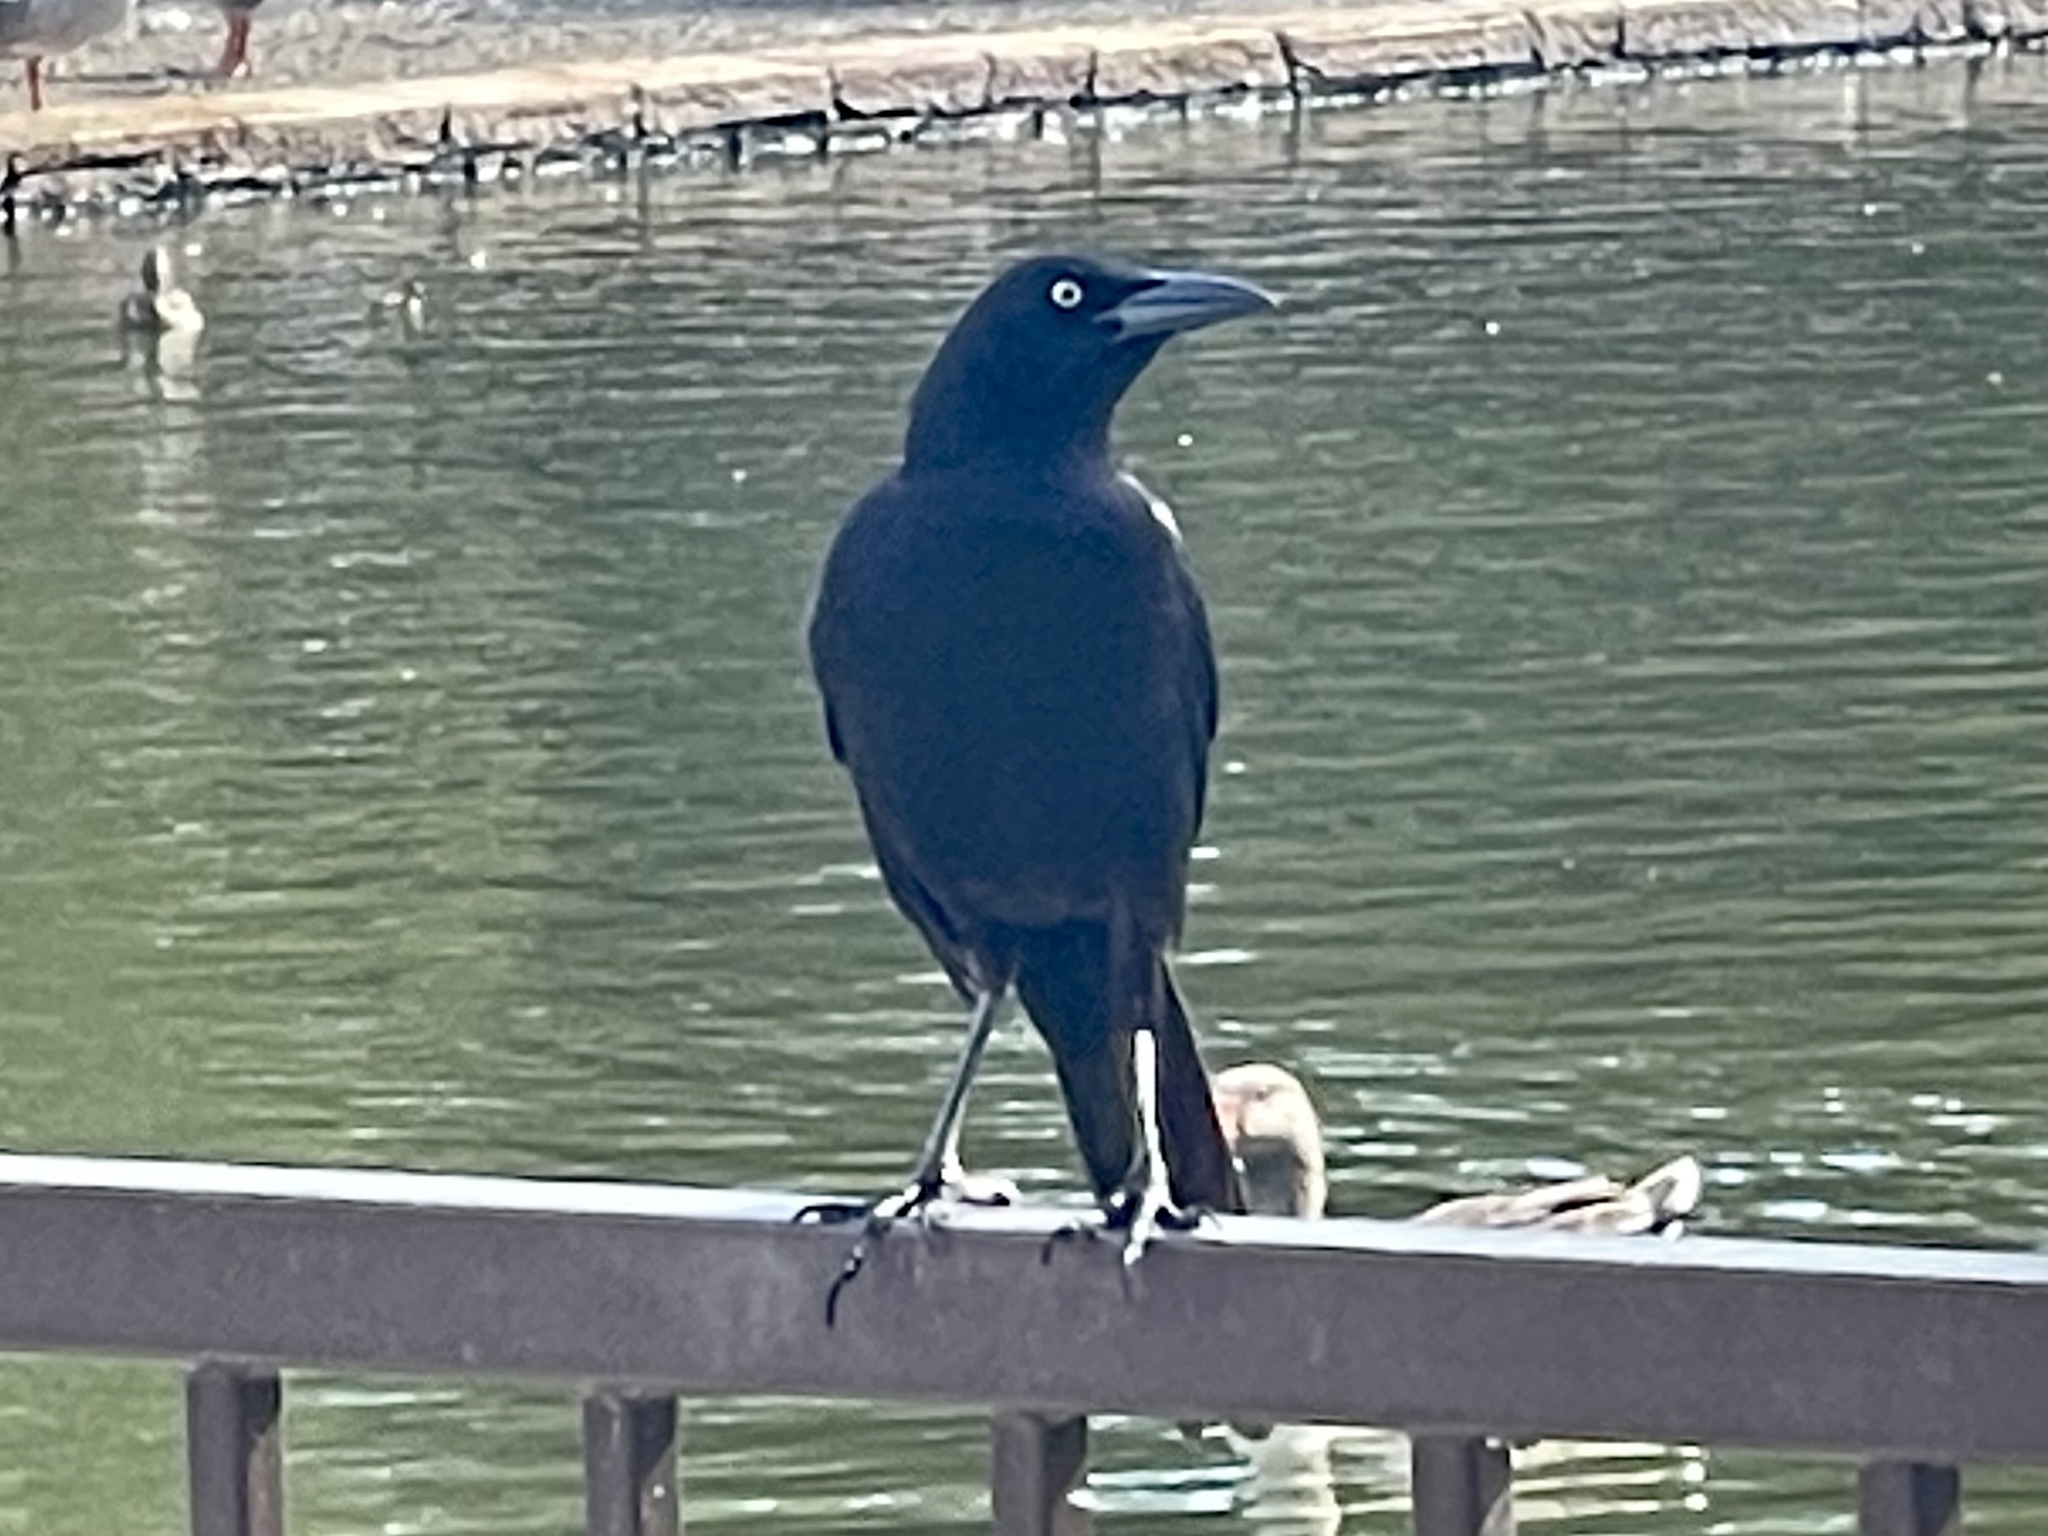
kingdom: Animalia
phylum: Chordata
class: Aves
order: Passeriformes
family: Icteridae
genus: Quiscalus
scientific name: Quiscalus mexicanus
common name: Great-tailed grackle
